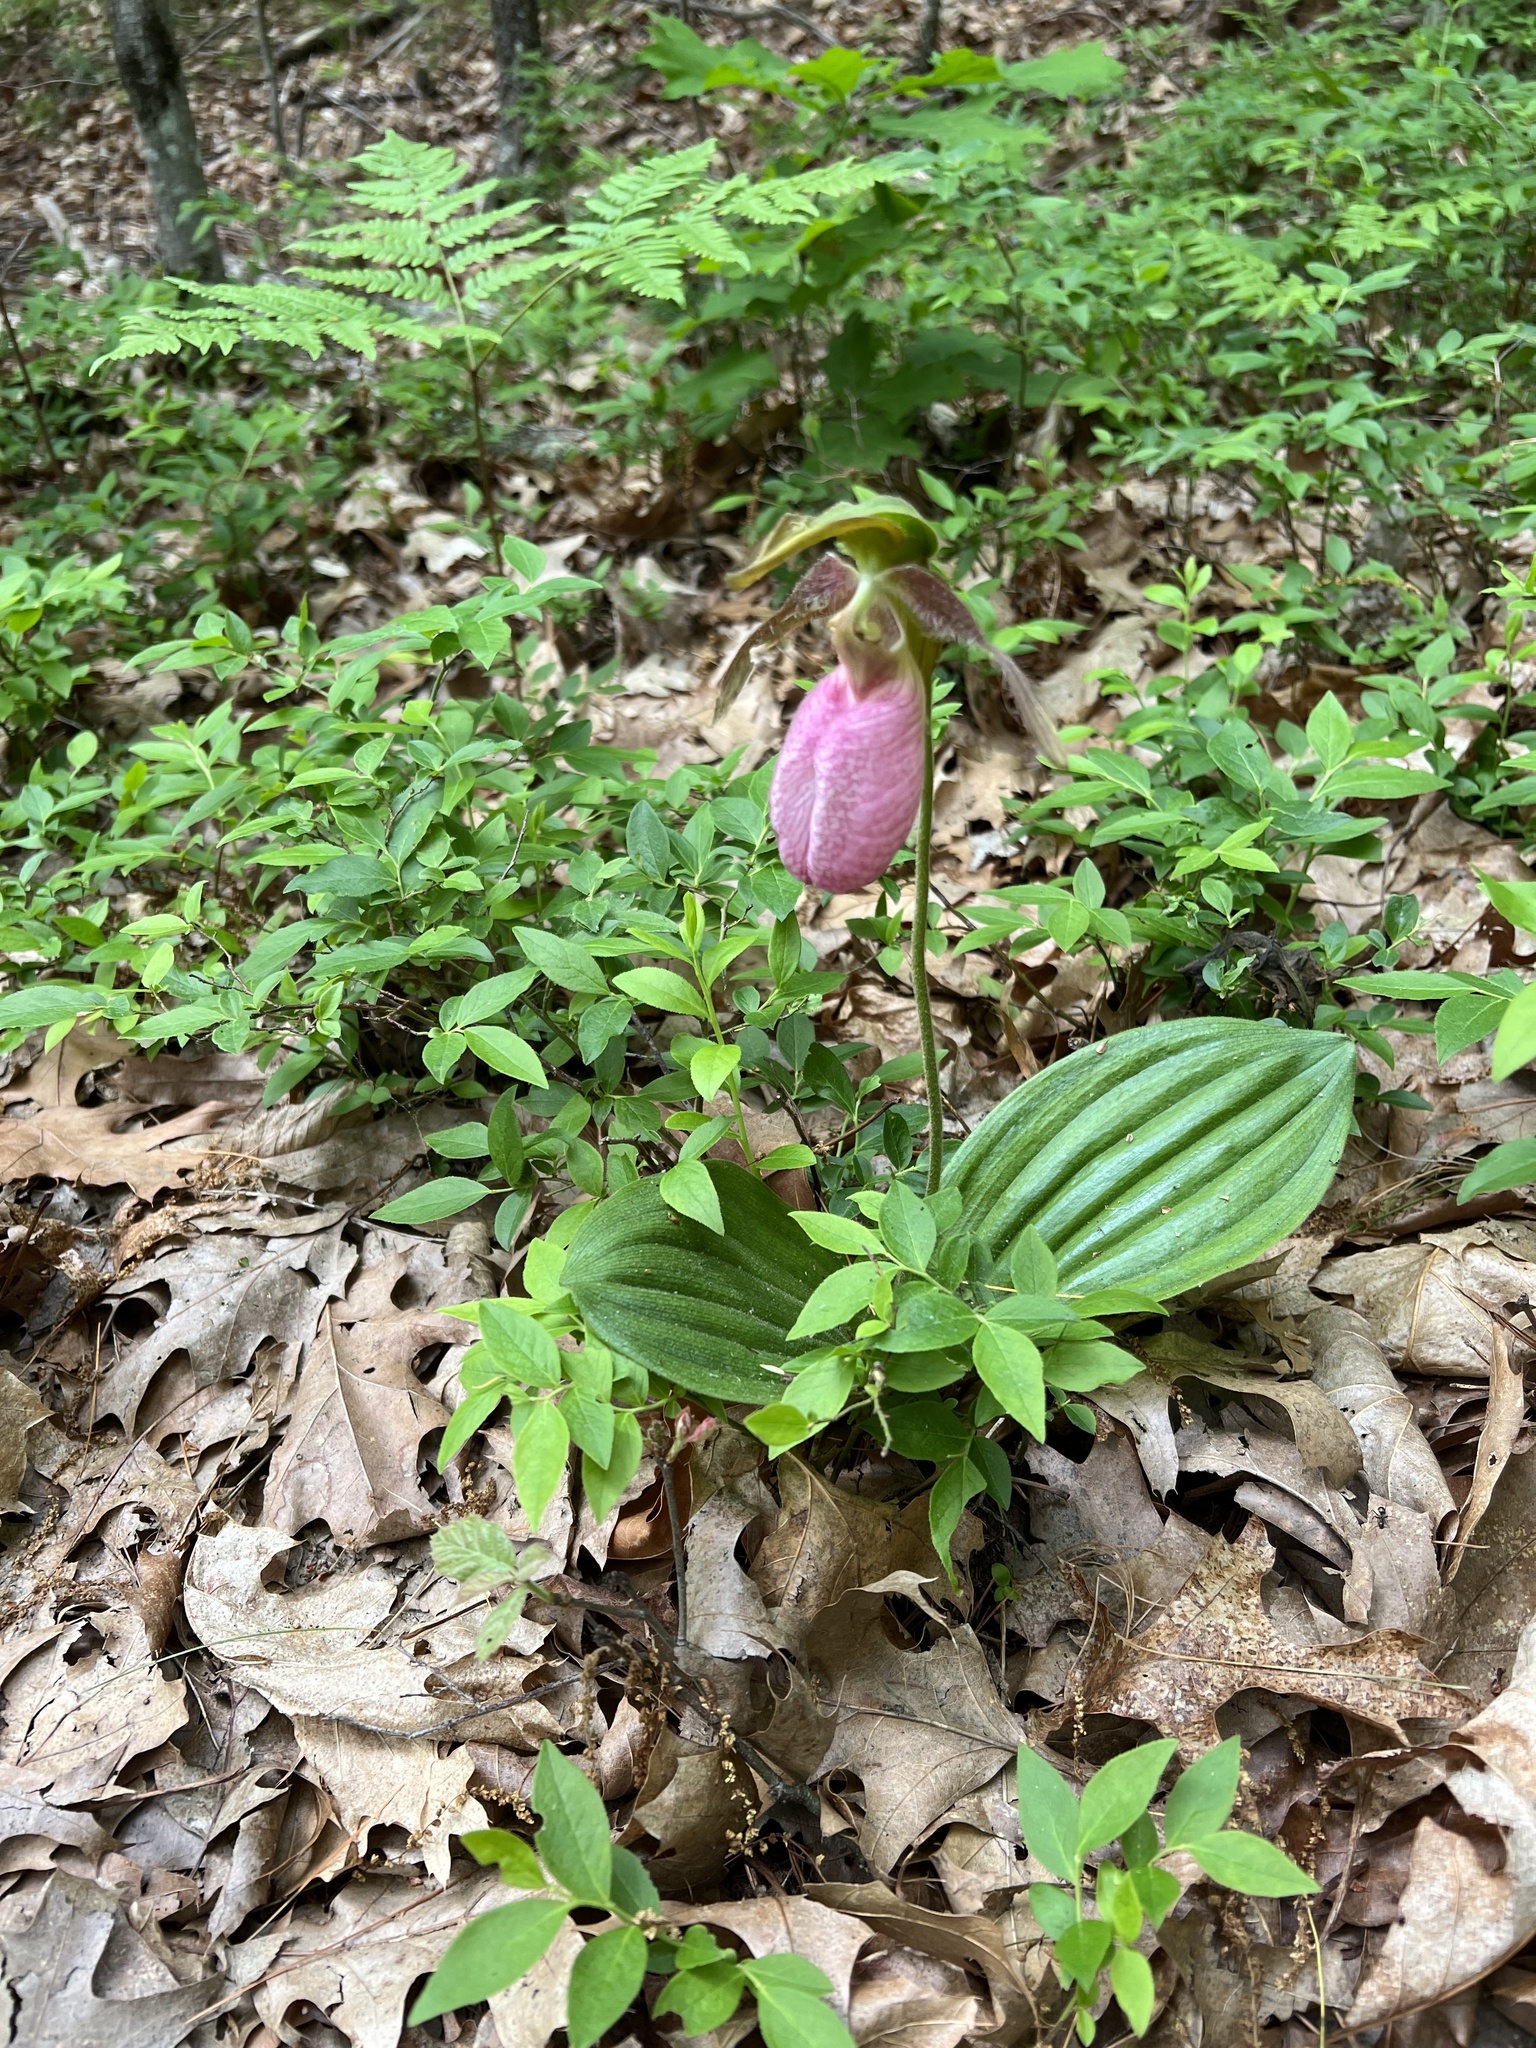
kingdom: Plantae
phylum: Tracheophyta
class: Liliopsida
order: Asparagales
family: Orchidaceae
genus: Cypripedium
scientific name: Cypripedium acaule
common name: Pink lady's-slipper
